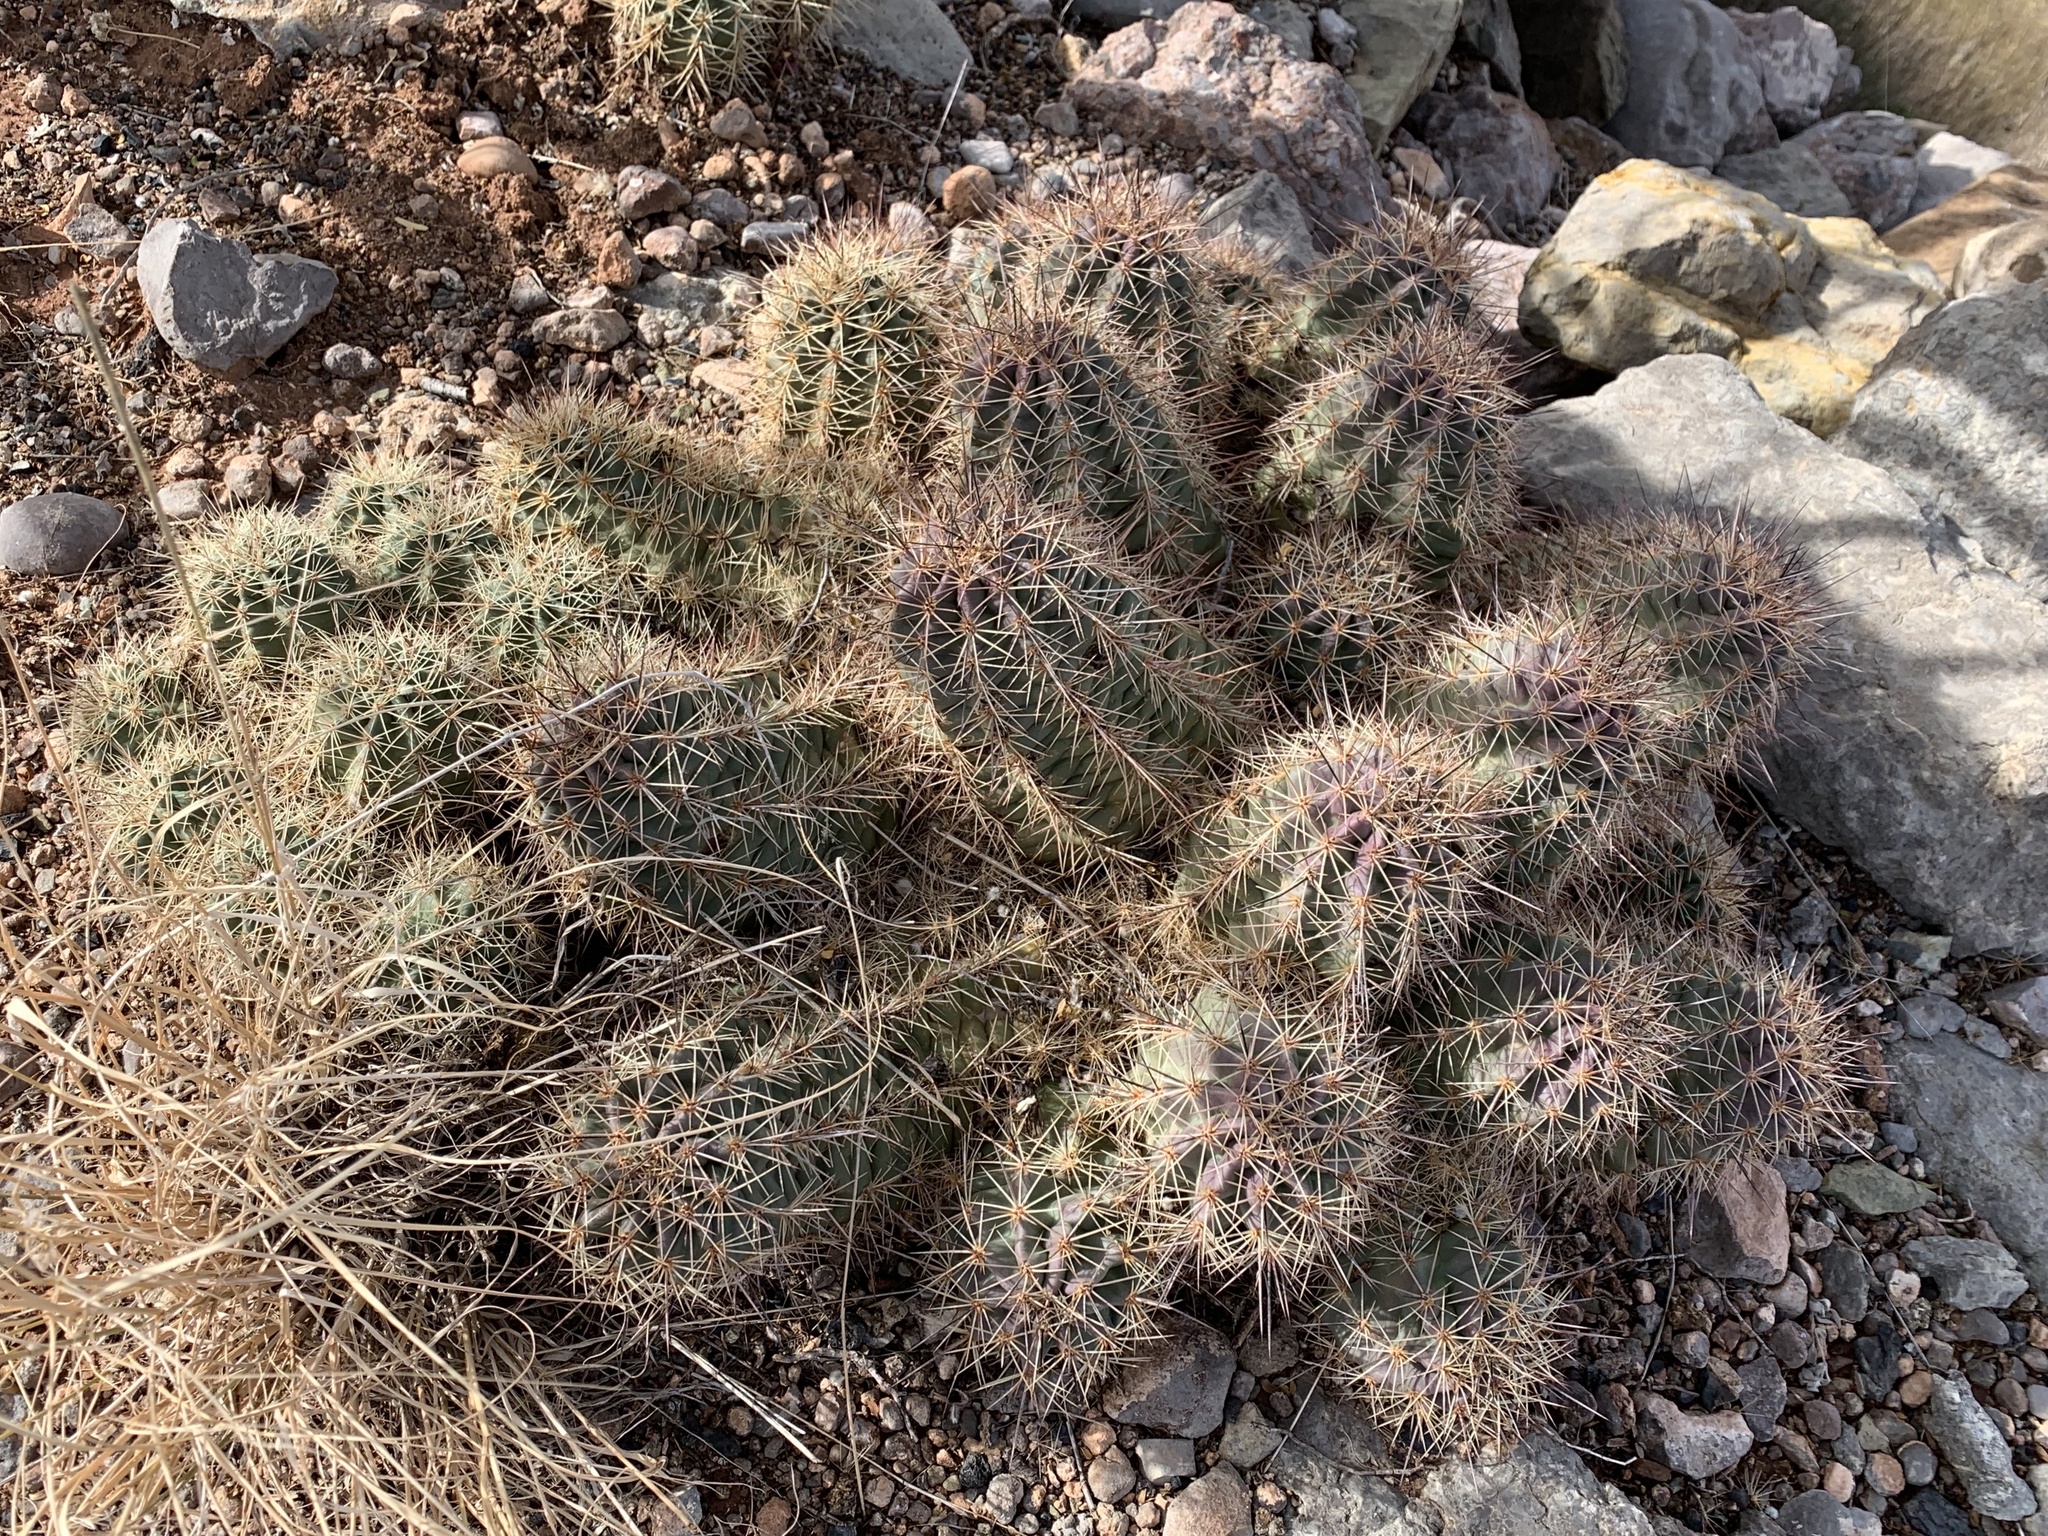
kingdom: Plantae
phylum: Tracheophyta
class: Magnoliopsida
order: Caryophyllales
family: Cactaceae
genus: Echinocereus
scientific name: Echinocereus coccineus
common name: Scarlet hedgehog cactus
